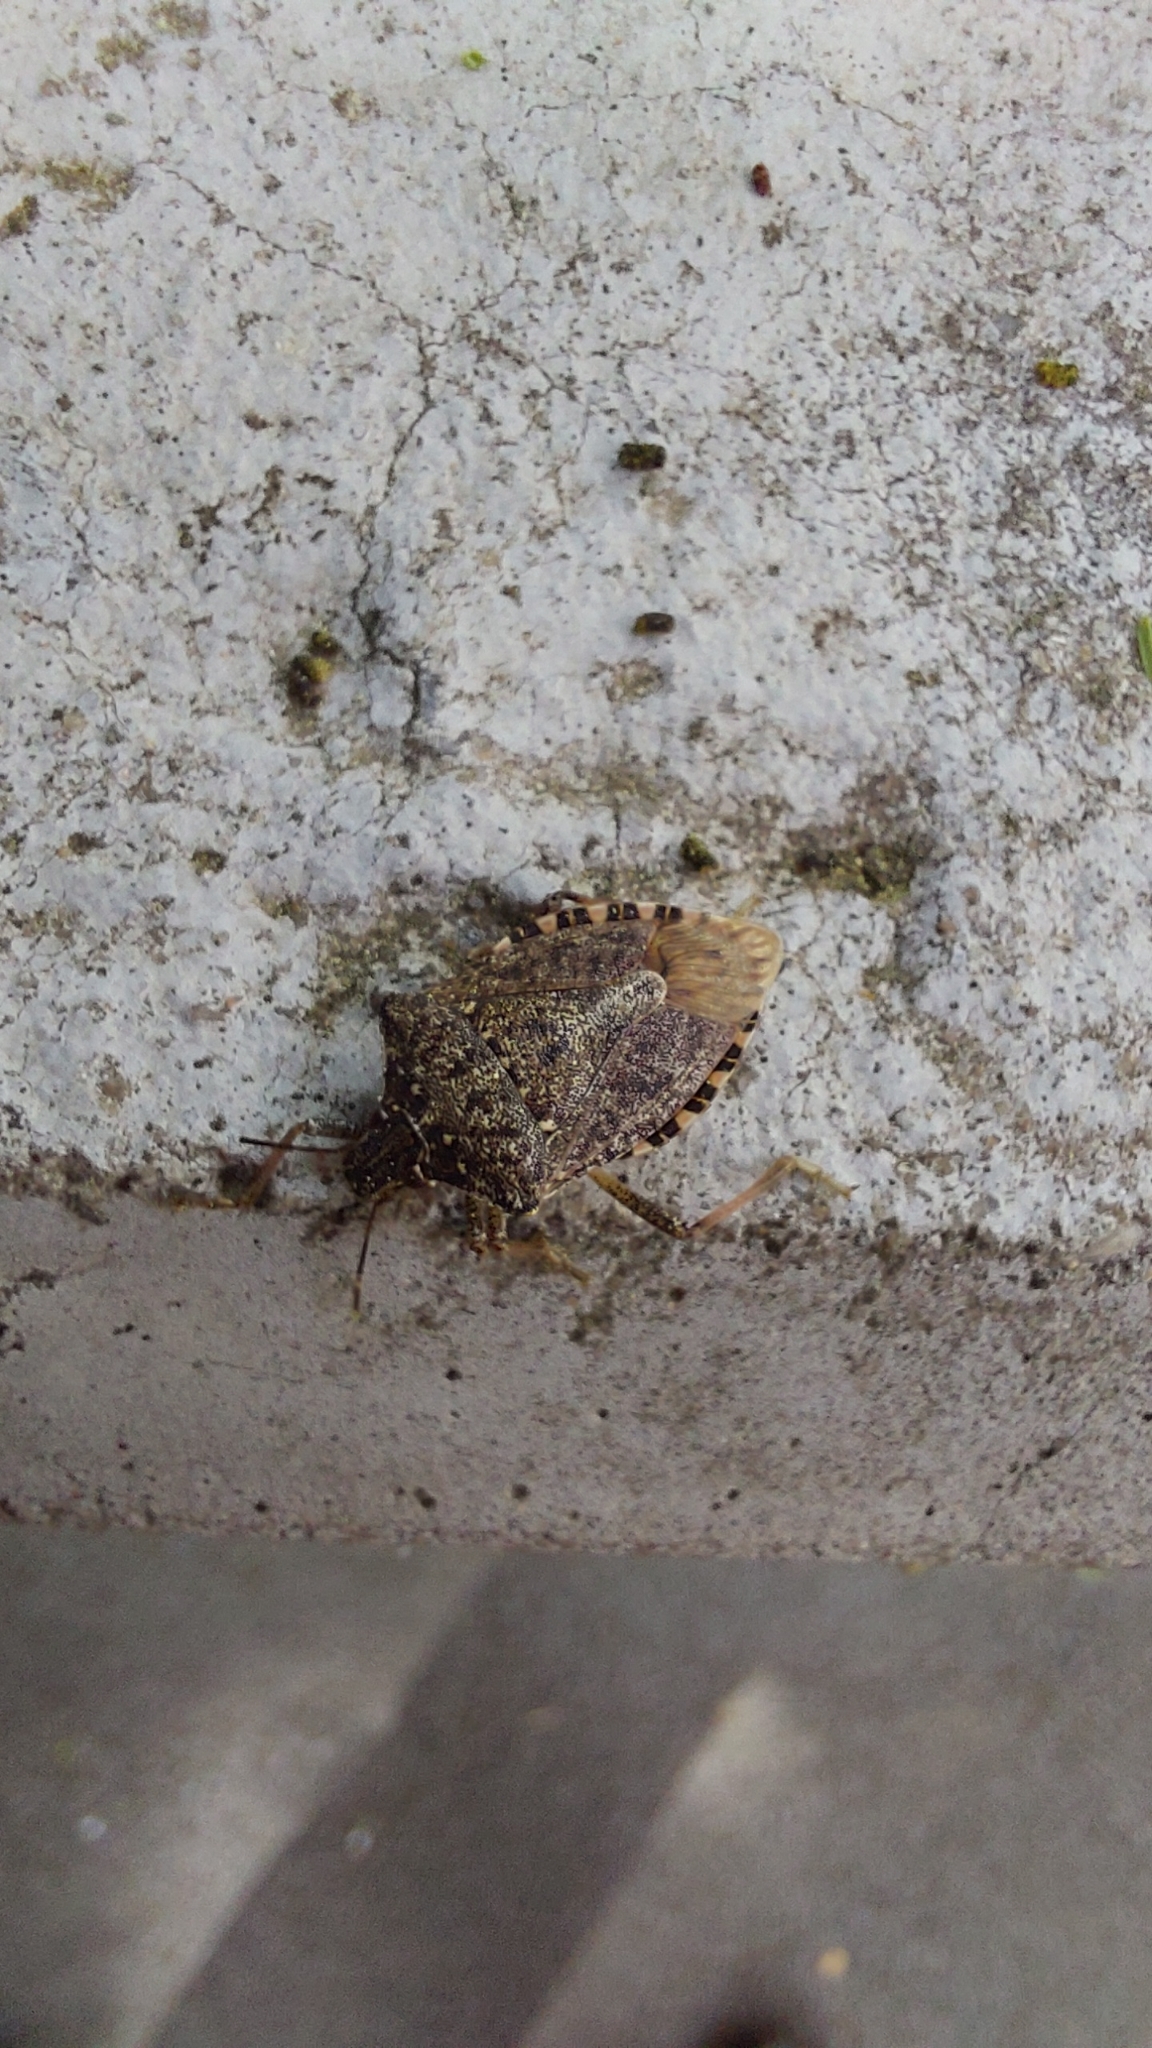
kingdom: Animalia
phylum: Arthropoda
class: Insecta
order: Hemiptera
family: Pentatomidae
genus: Halyomorpha
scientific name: Halyomorpha halys
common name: Brown marmorated stink bug
